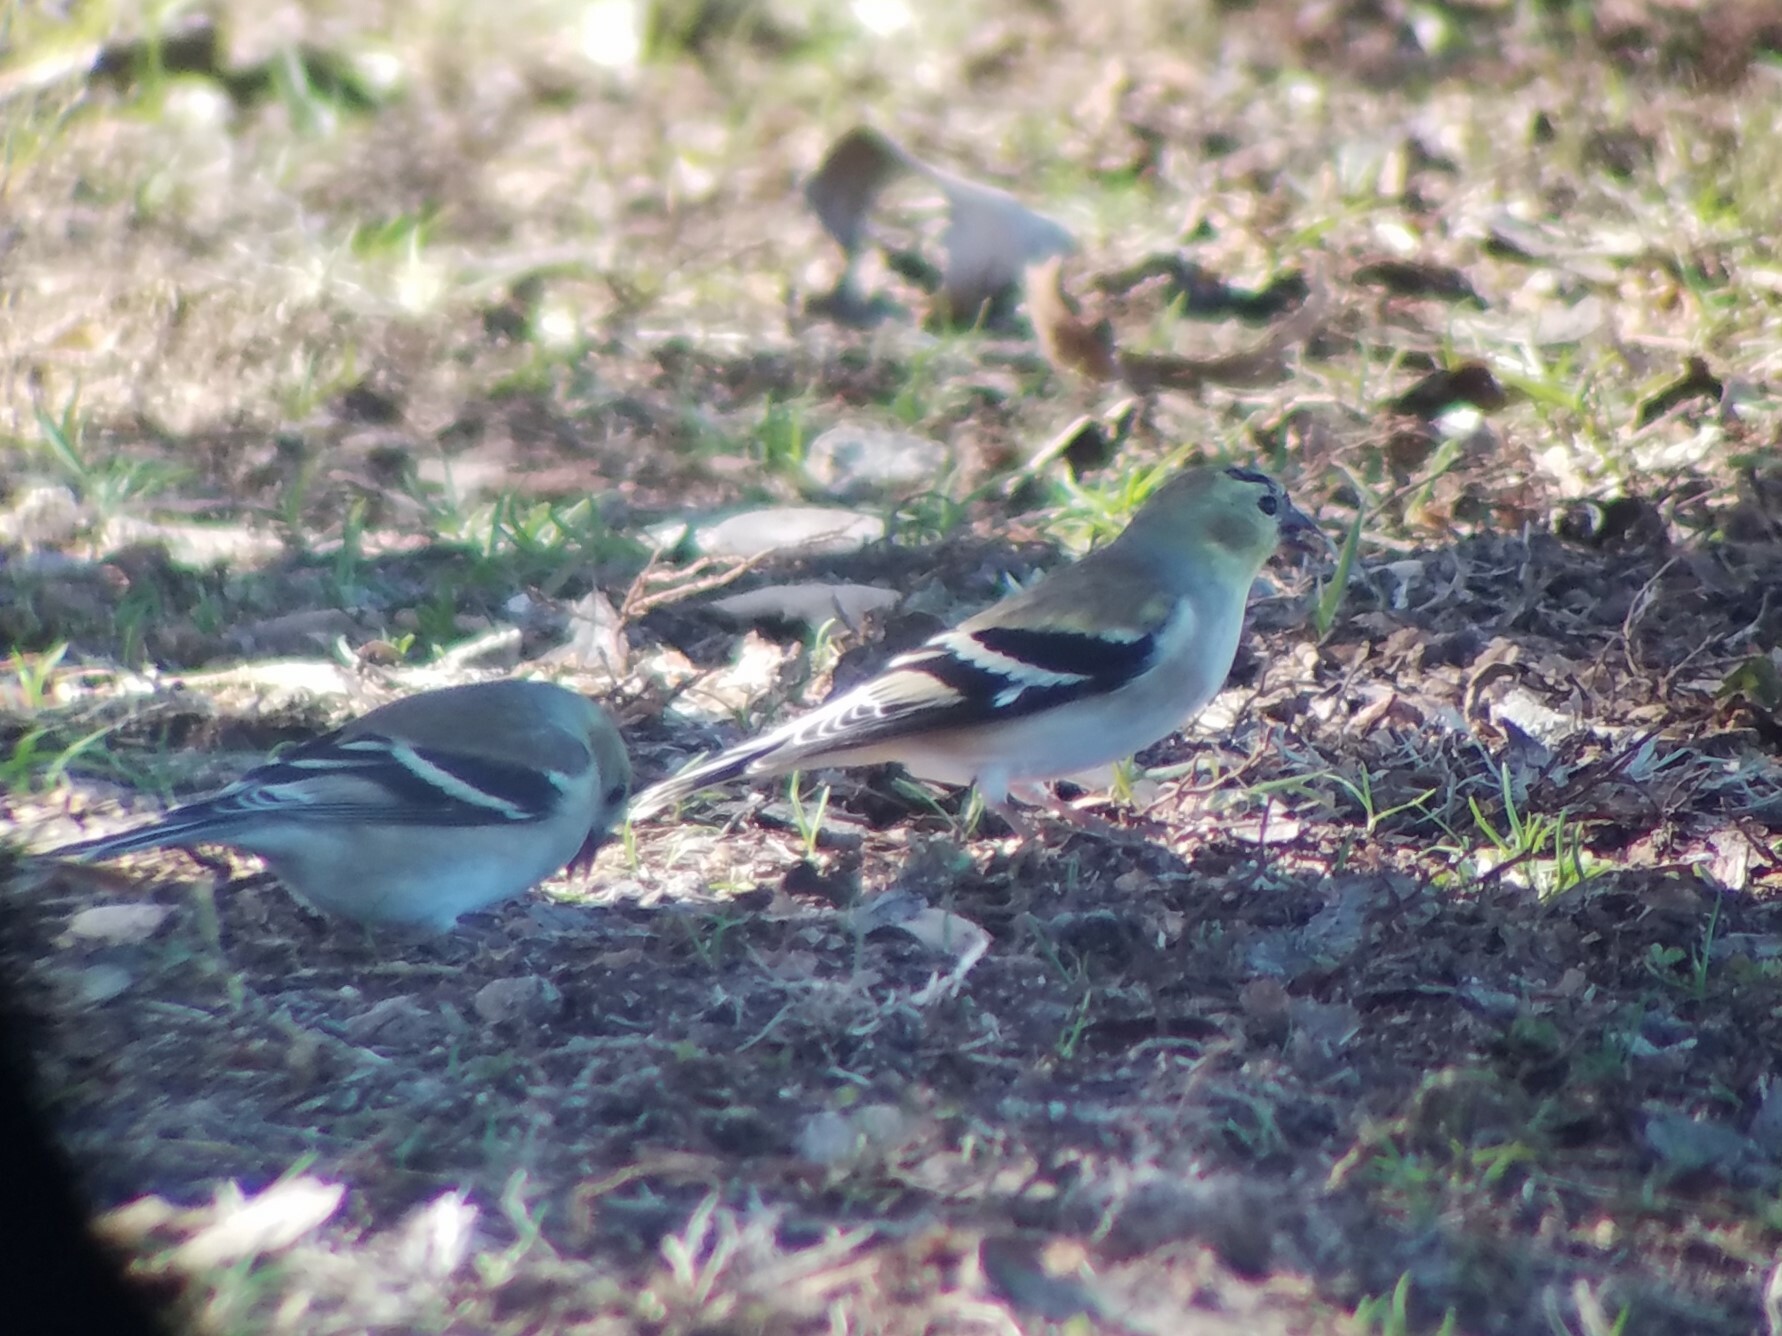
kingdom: Animalia
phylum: Chordata
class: Aves
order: Passeriformes
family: Fringillidae
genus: Spinus
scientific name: Spinus tristis
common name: American goldfinch
